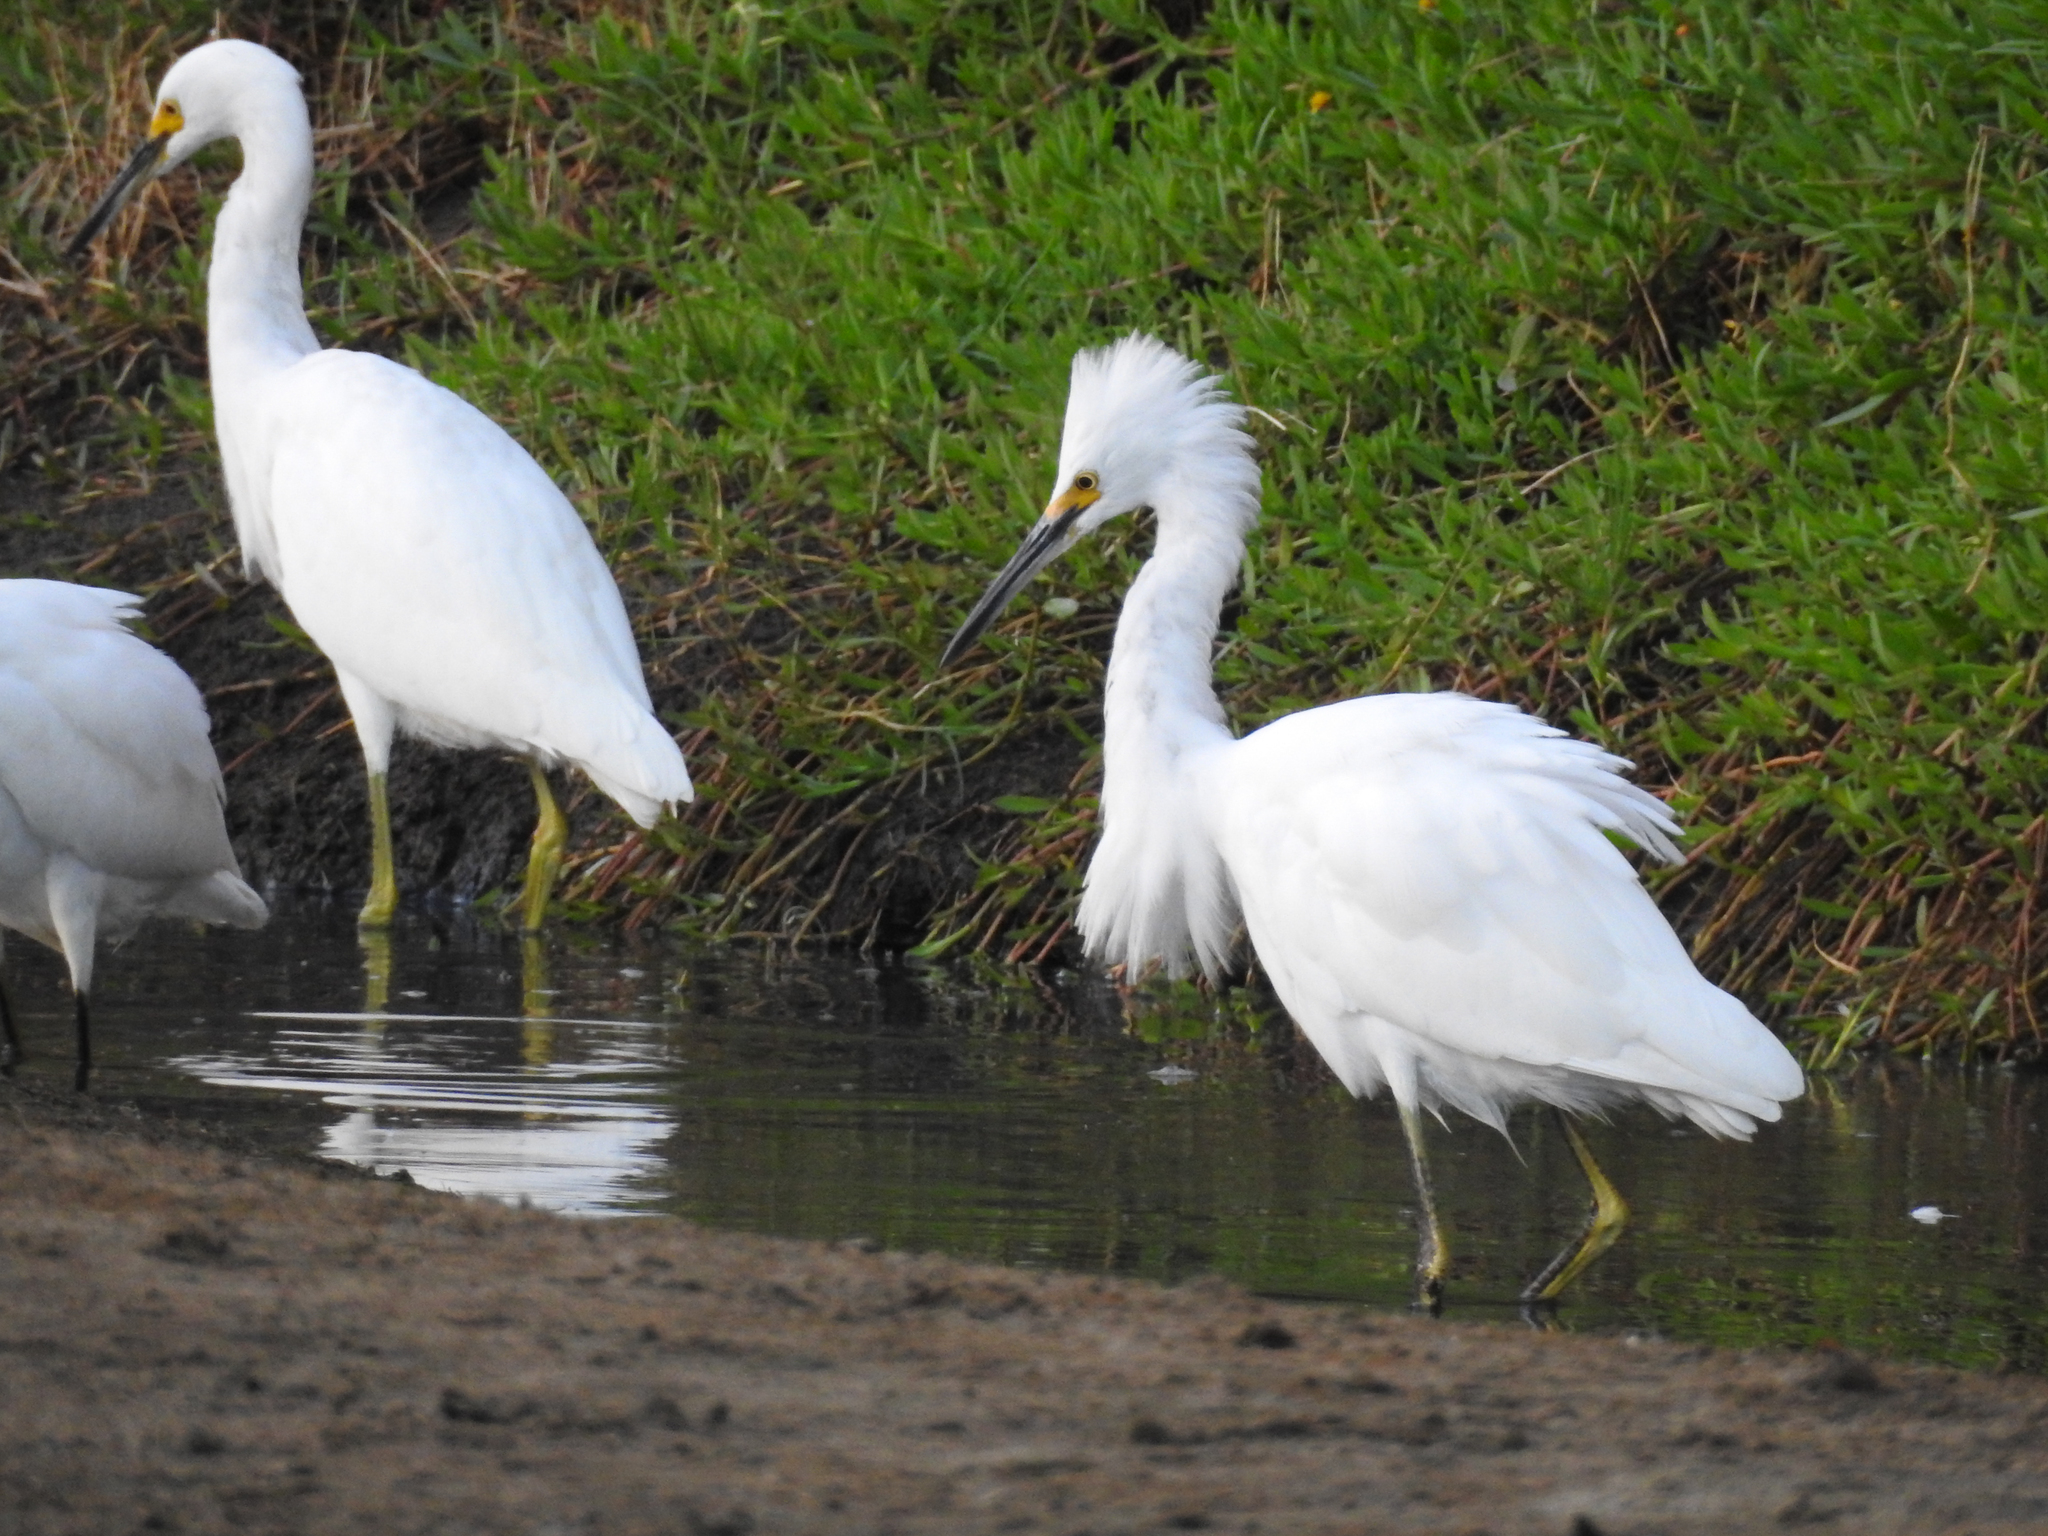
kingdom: Animalia
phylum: Chordata
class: Aves
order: Pelecaniformes
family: Ardeidae
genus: Egretta
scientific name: Egretta thula
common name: Snowy egret
